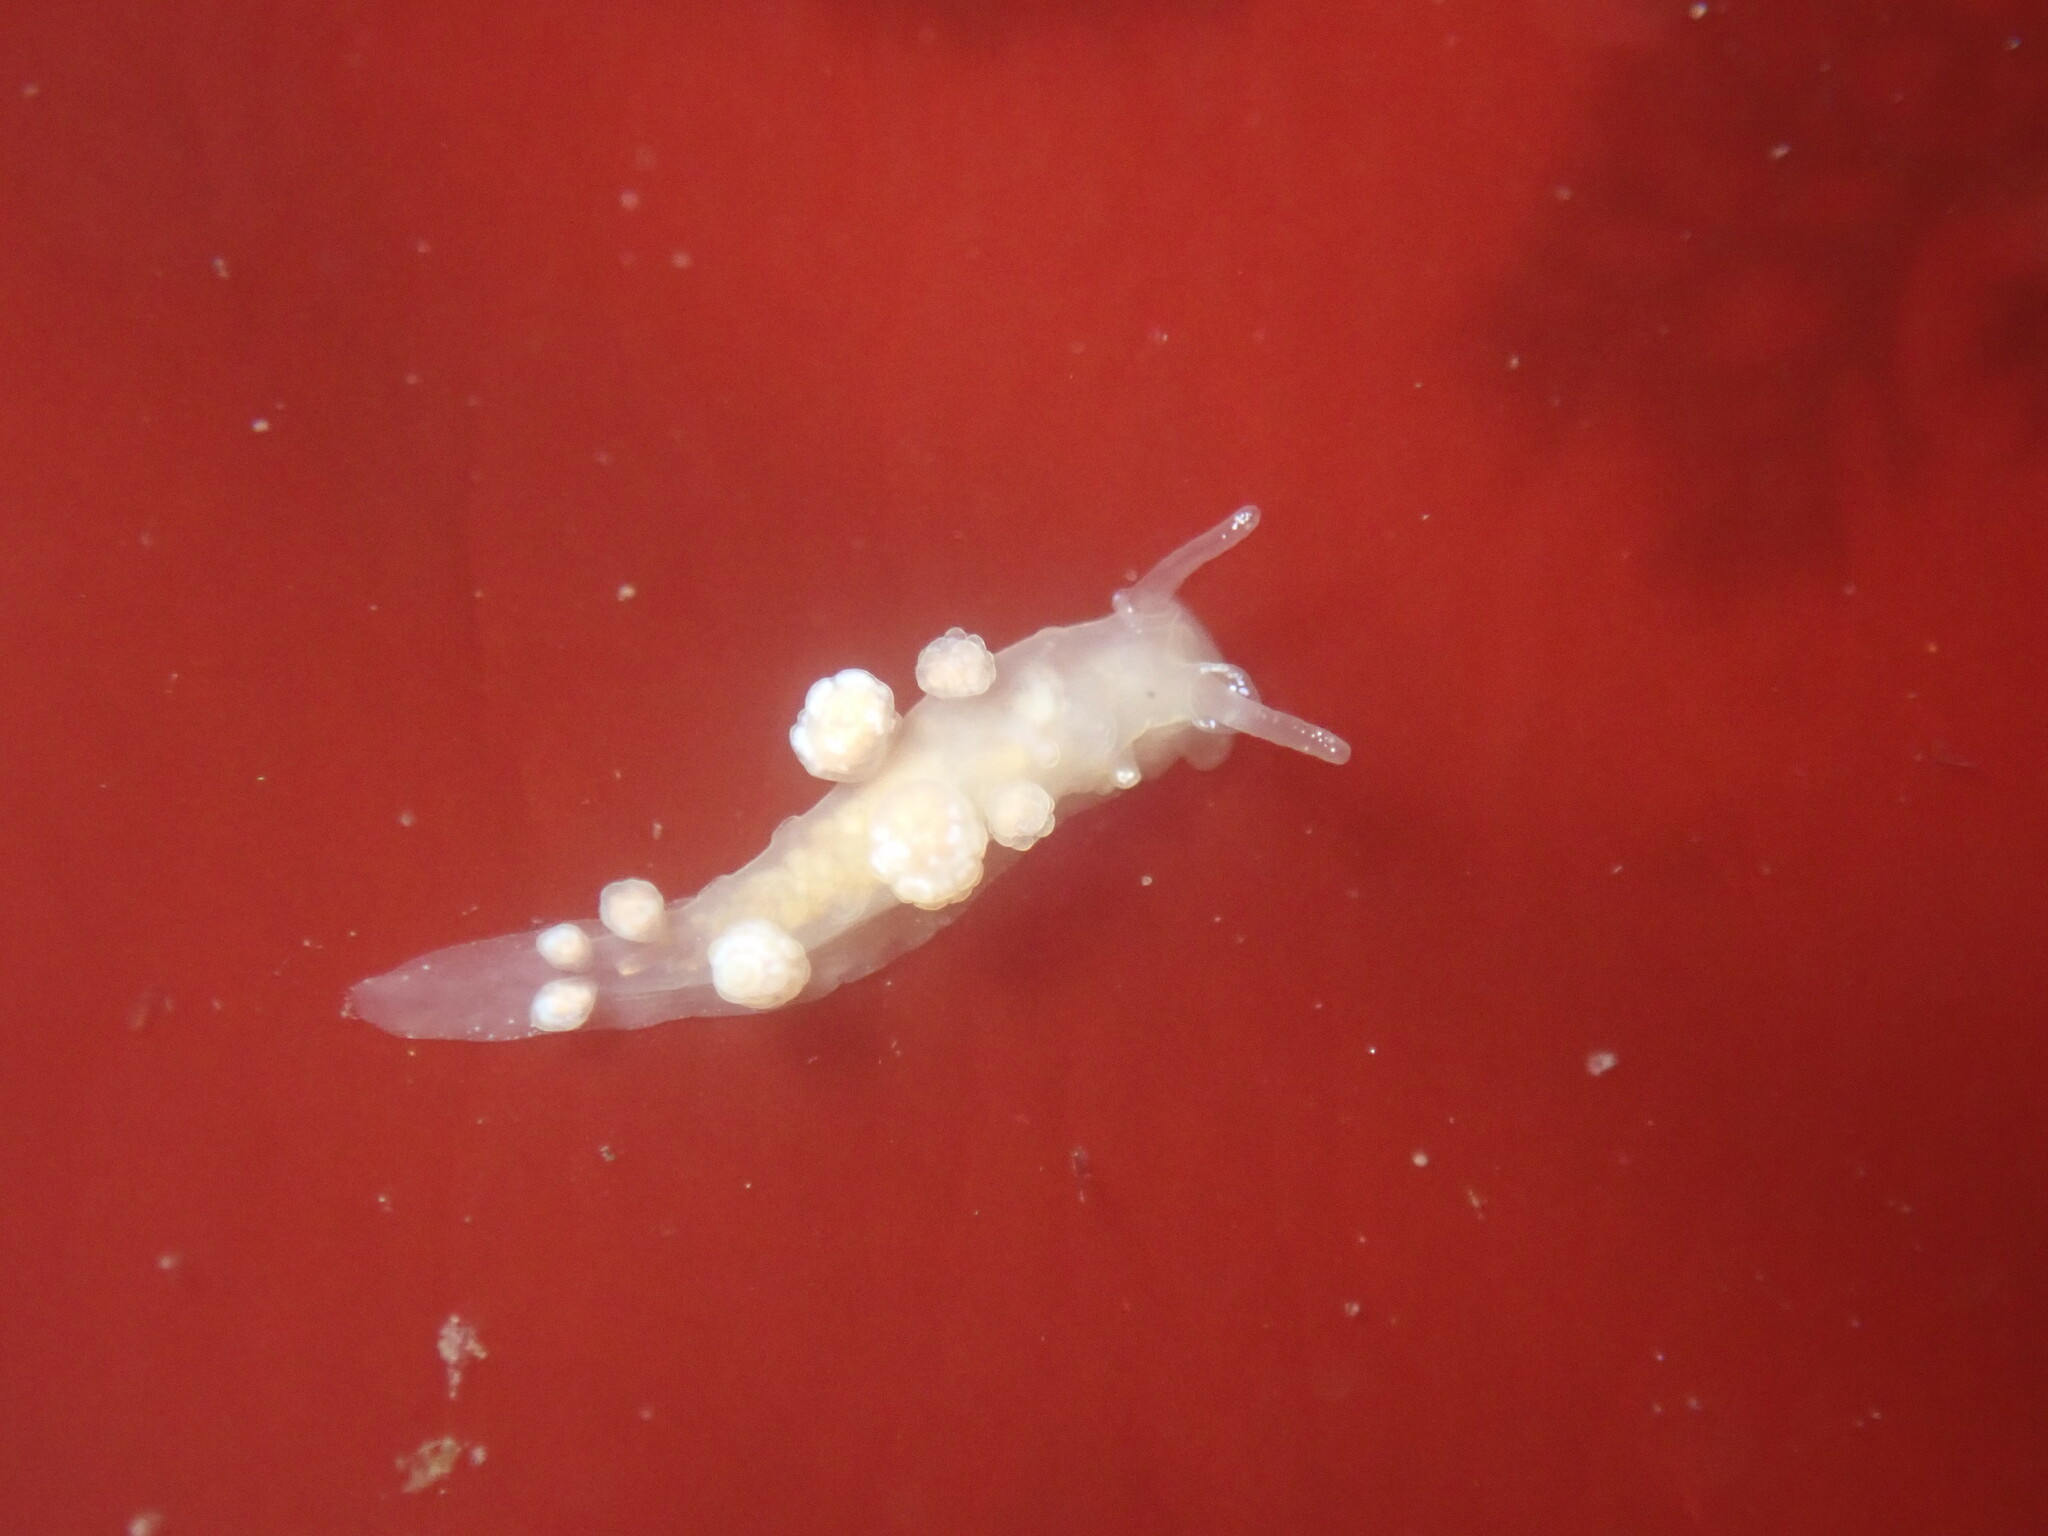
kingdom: Animalia
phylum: Mollusca
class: Gastropoda
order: Nudibranchia
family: Dotidae
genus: Doto
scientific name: Doto amyra
